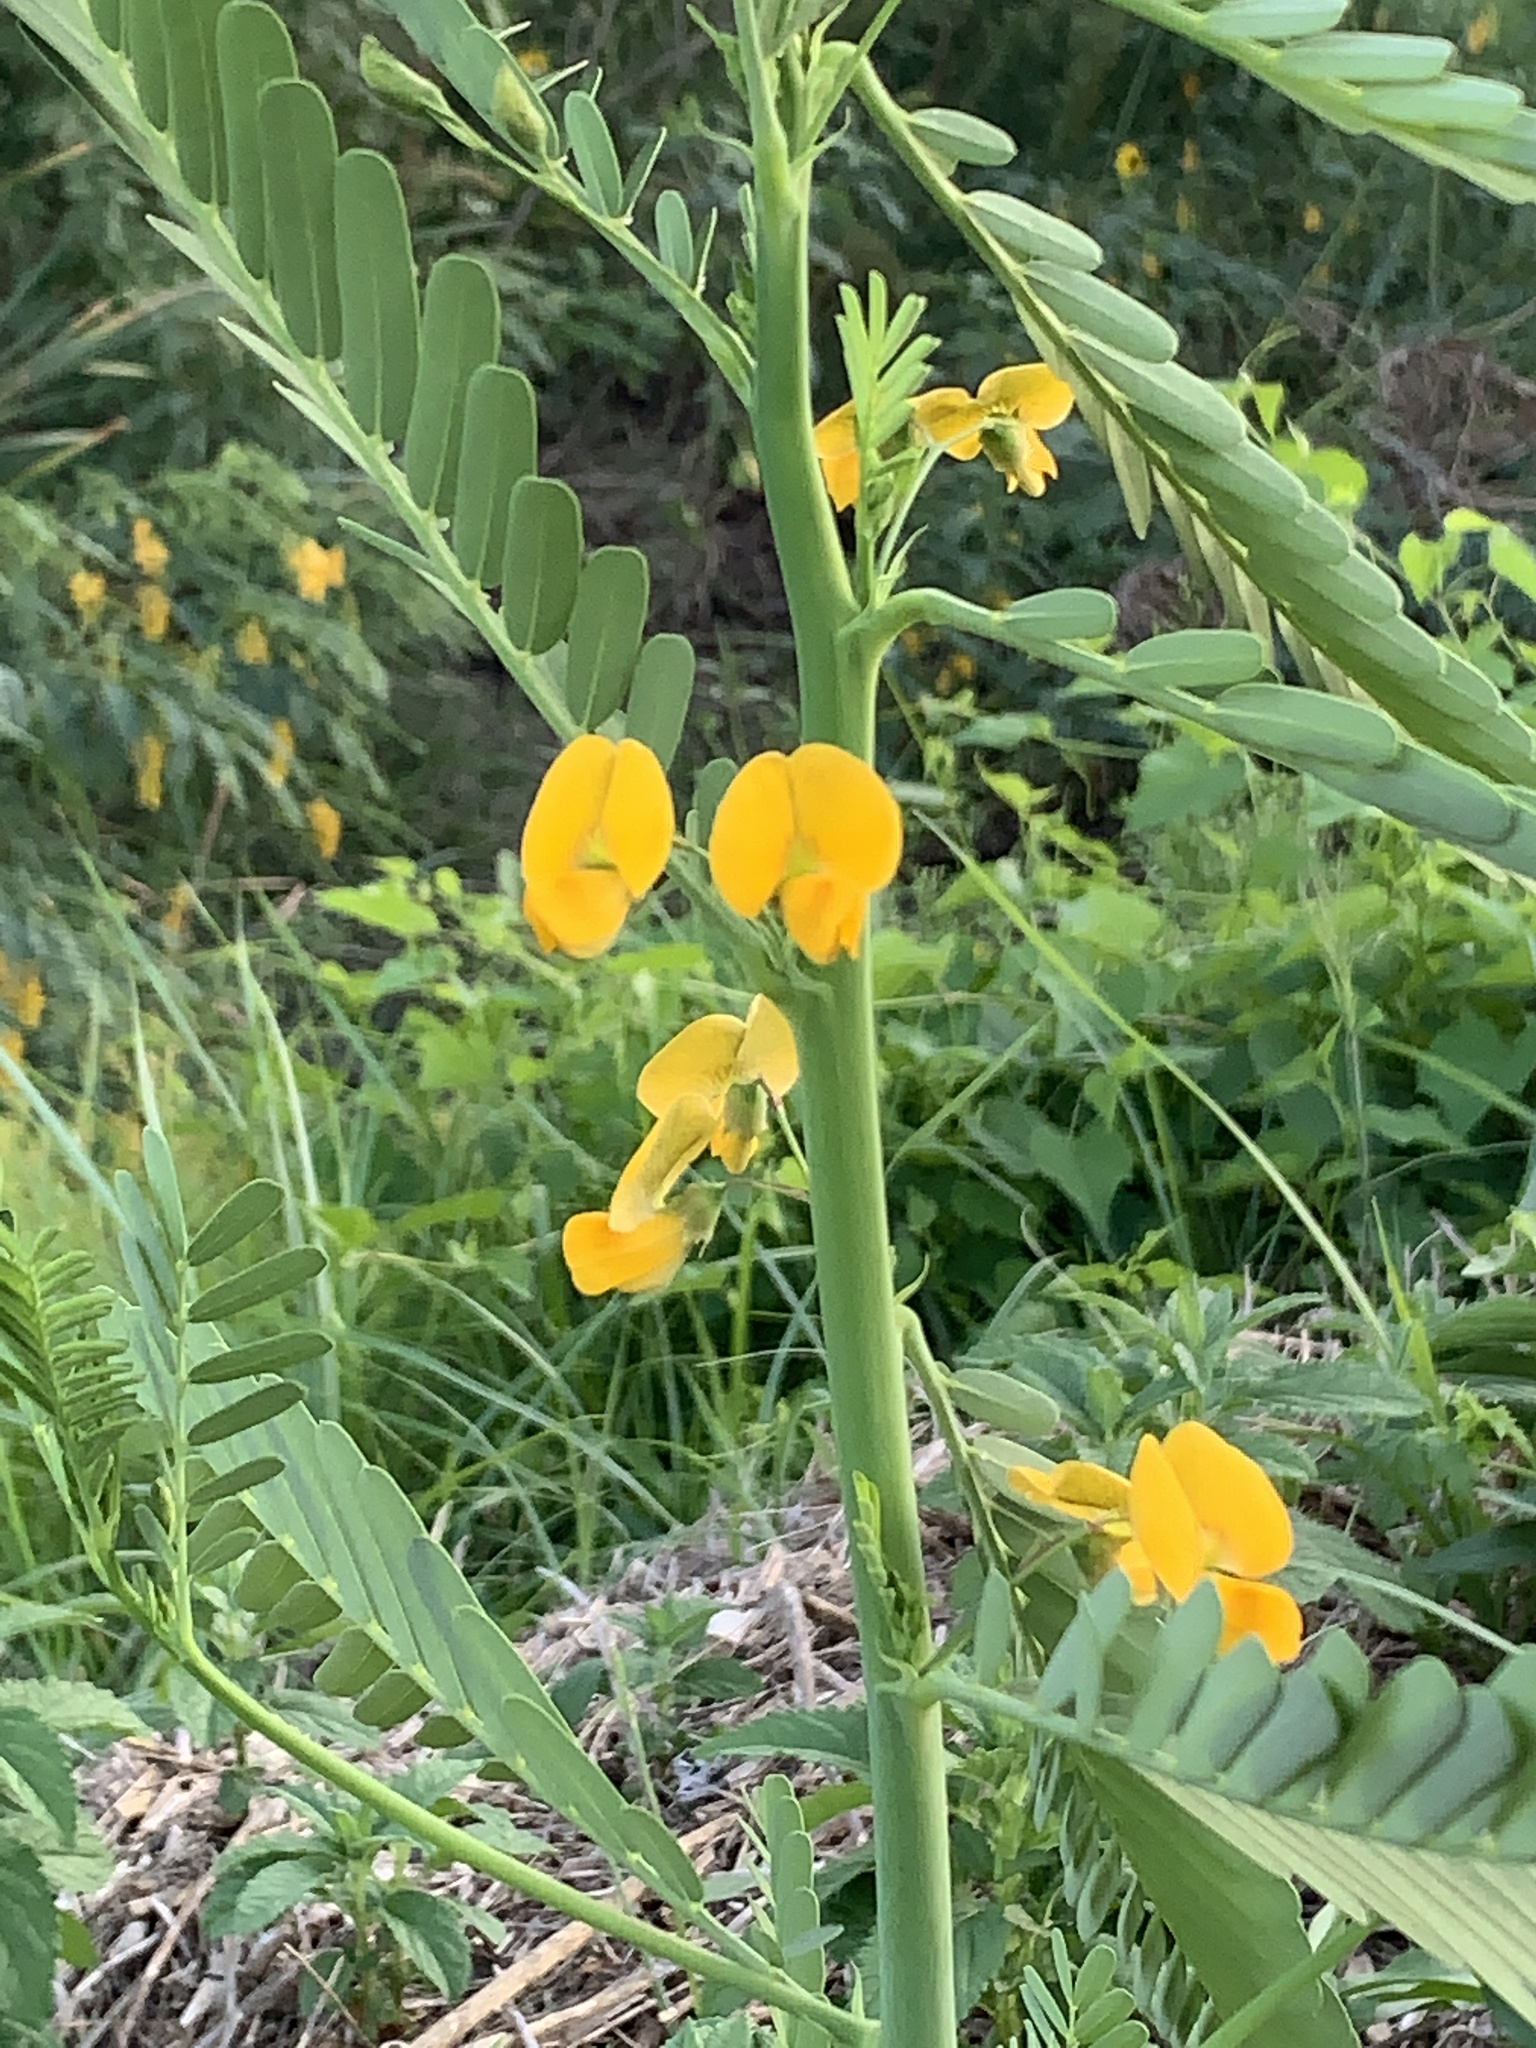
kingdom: Plantae
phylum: Tracheophyta
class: Magnoliopsida
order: Fabales
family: Fabaceae
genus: Sesbania
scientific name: Sesbania herbacea
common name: Bigpod sesbania
